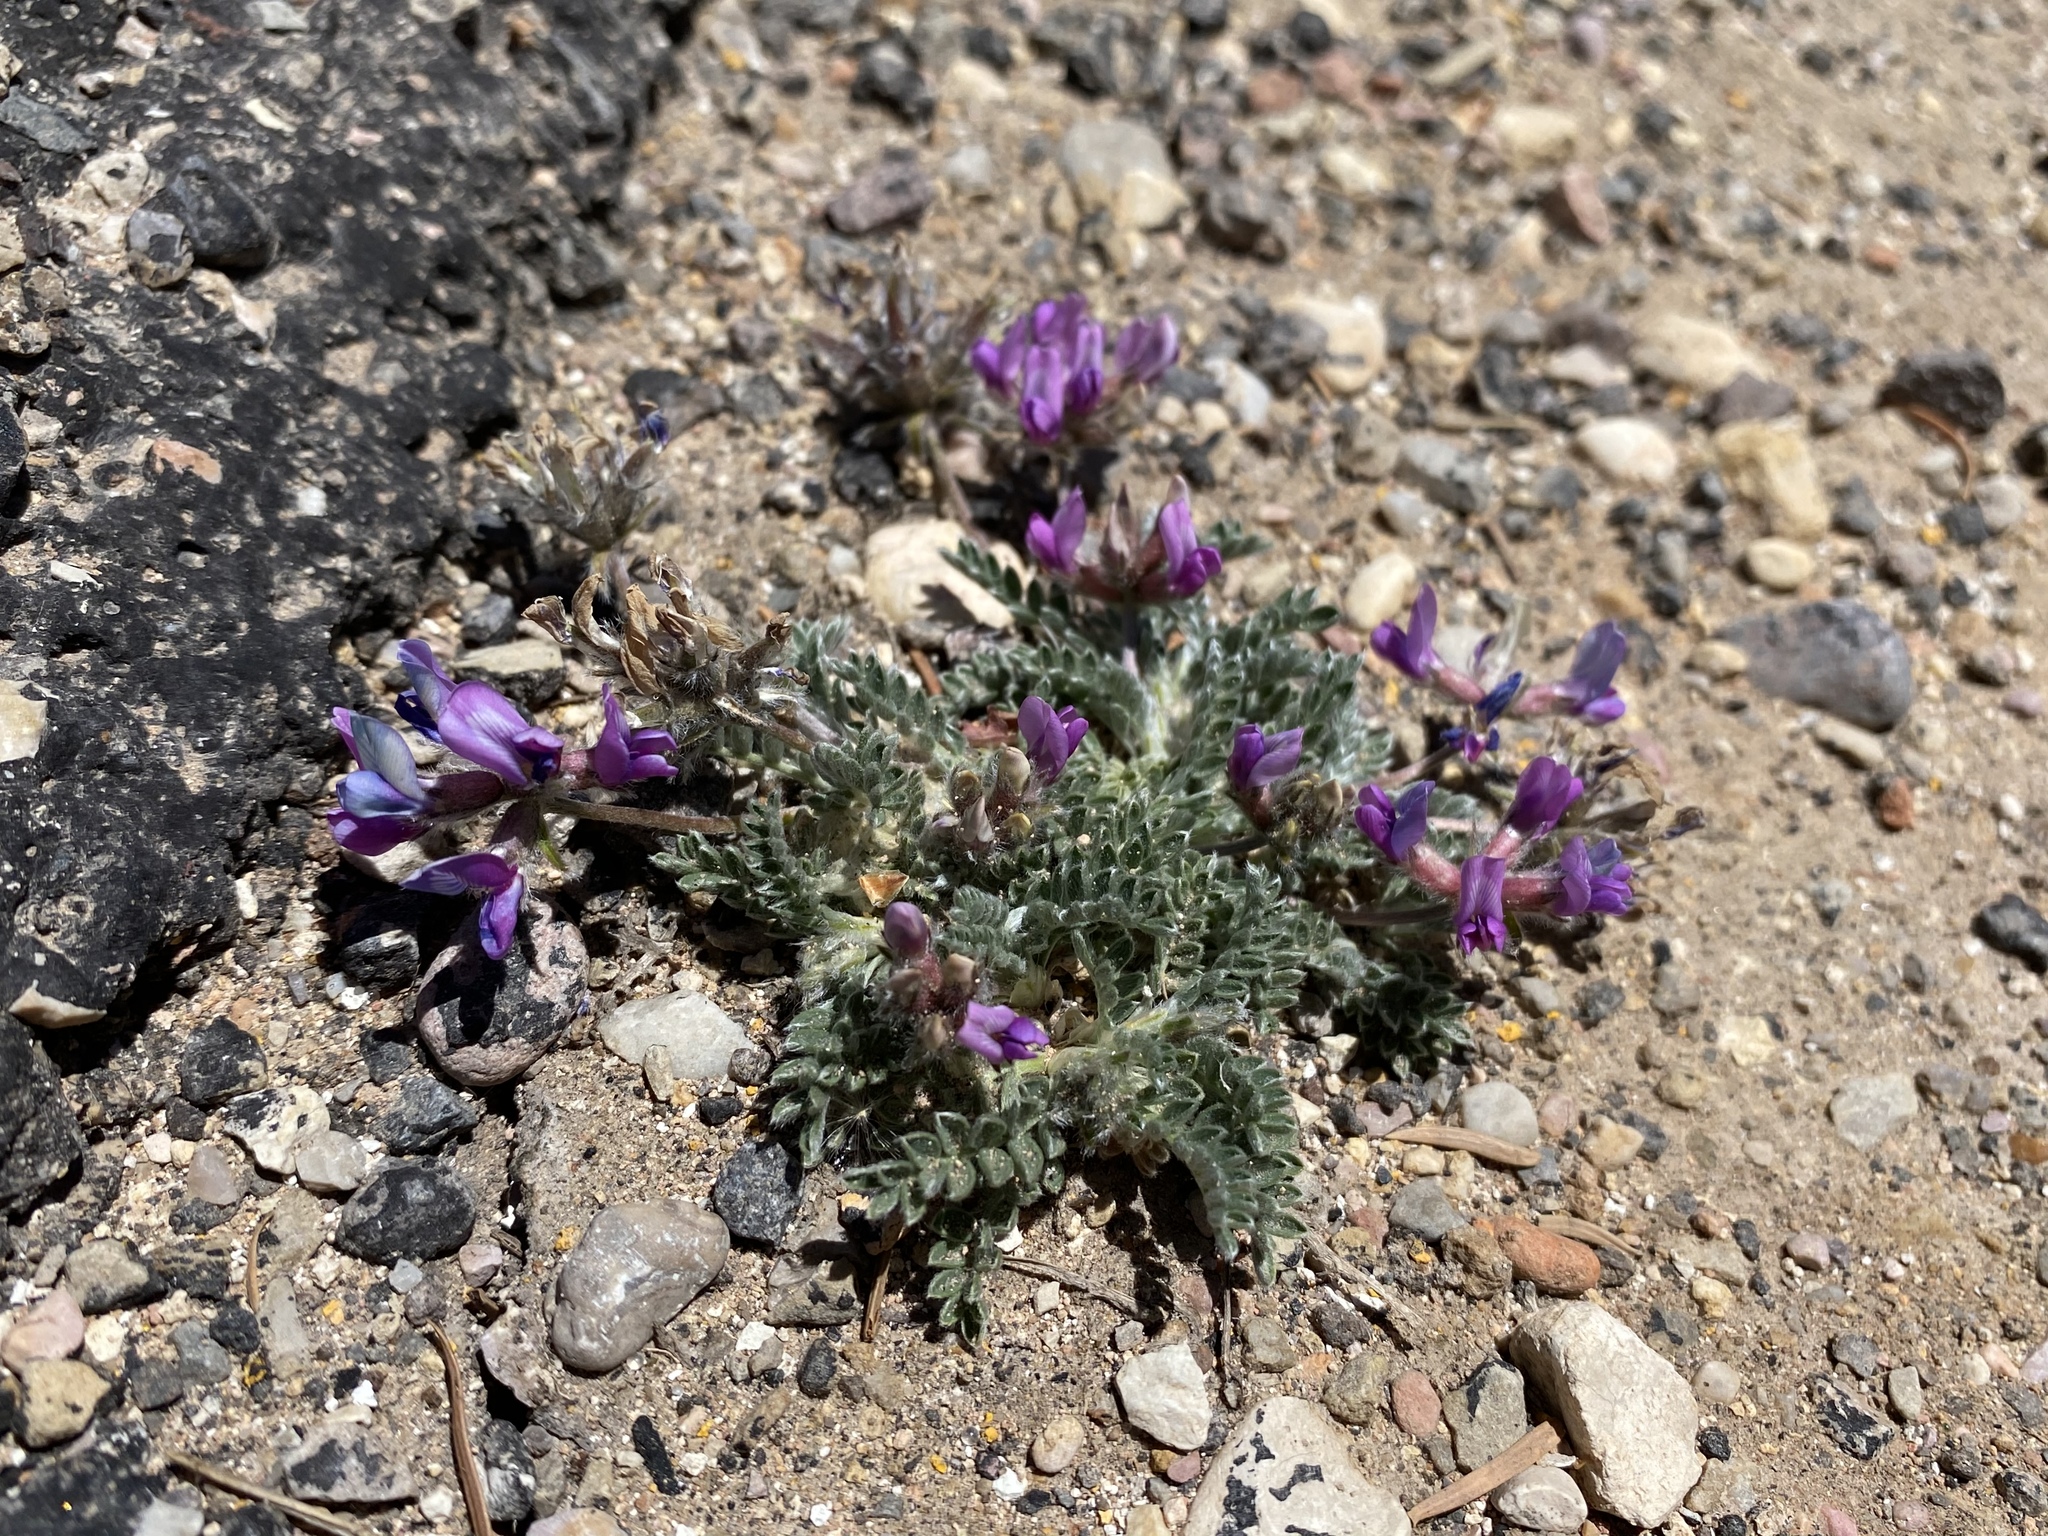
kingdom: Plantae
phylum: Tracheophyta
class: Magnoliopsida
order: Fabales
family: Fabaceae
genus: Oxytropis
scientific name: Oxytropis oreophila
